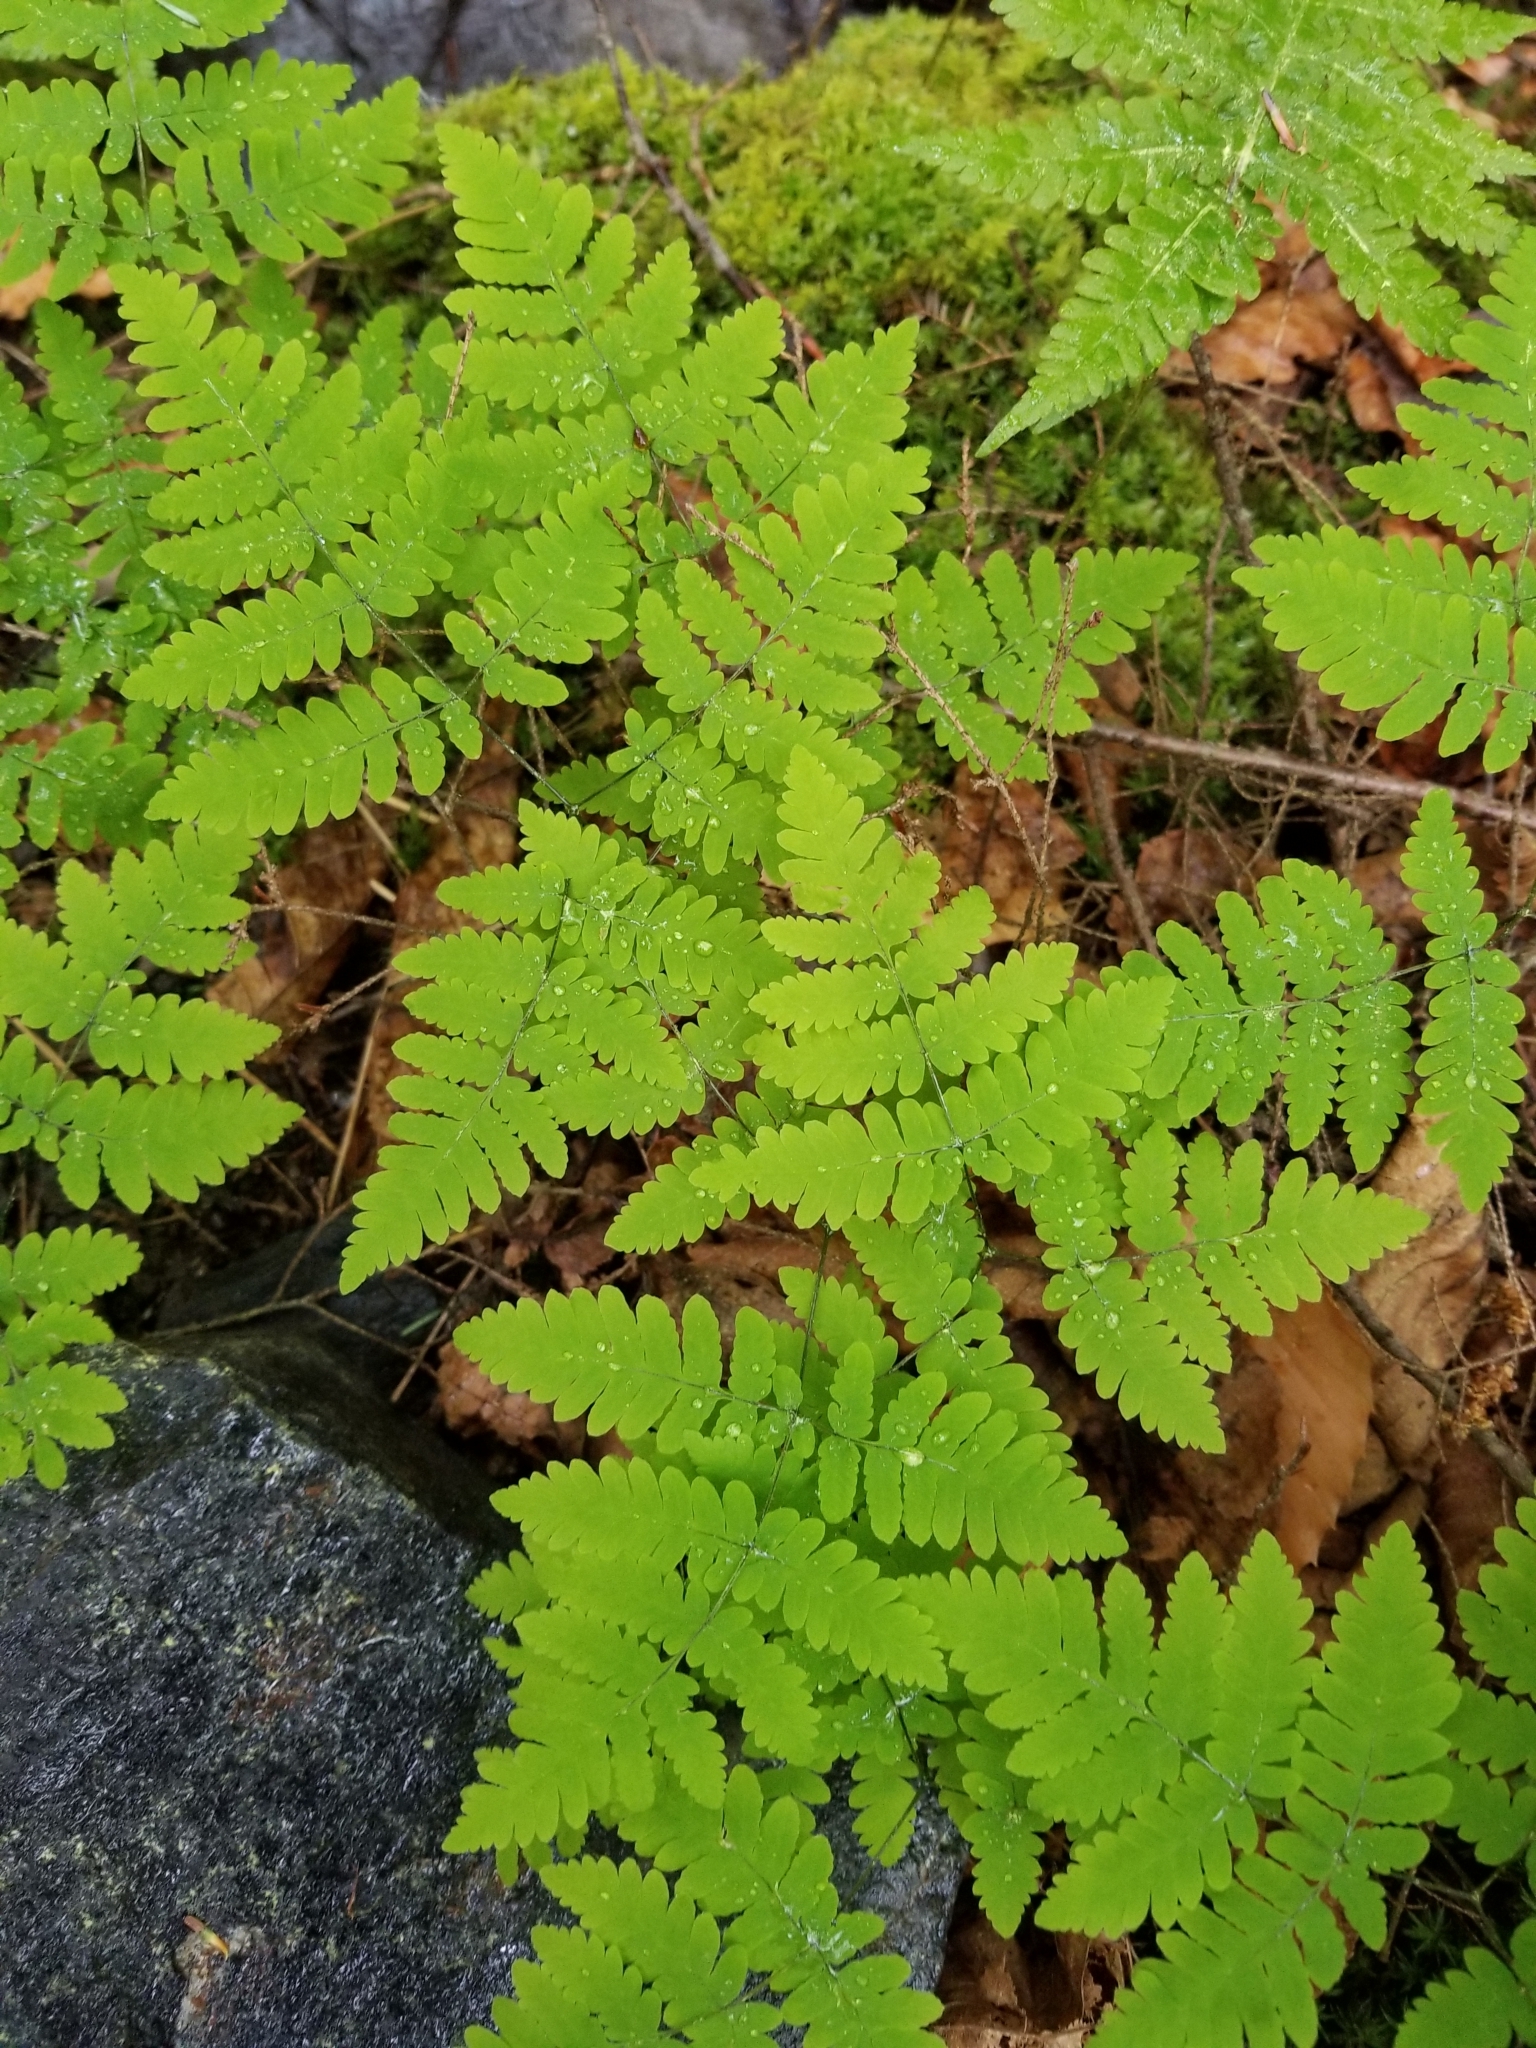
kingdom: Plantae
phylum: Tracheophyta
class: Polypodiopsida
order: Polypodiales
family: Cystopteridaceae
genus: Gymnocarpium
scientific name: Gymnocarpium dryopteris
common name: Oak fern
